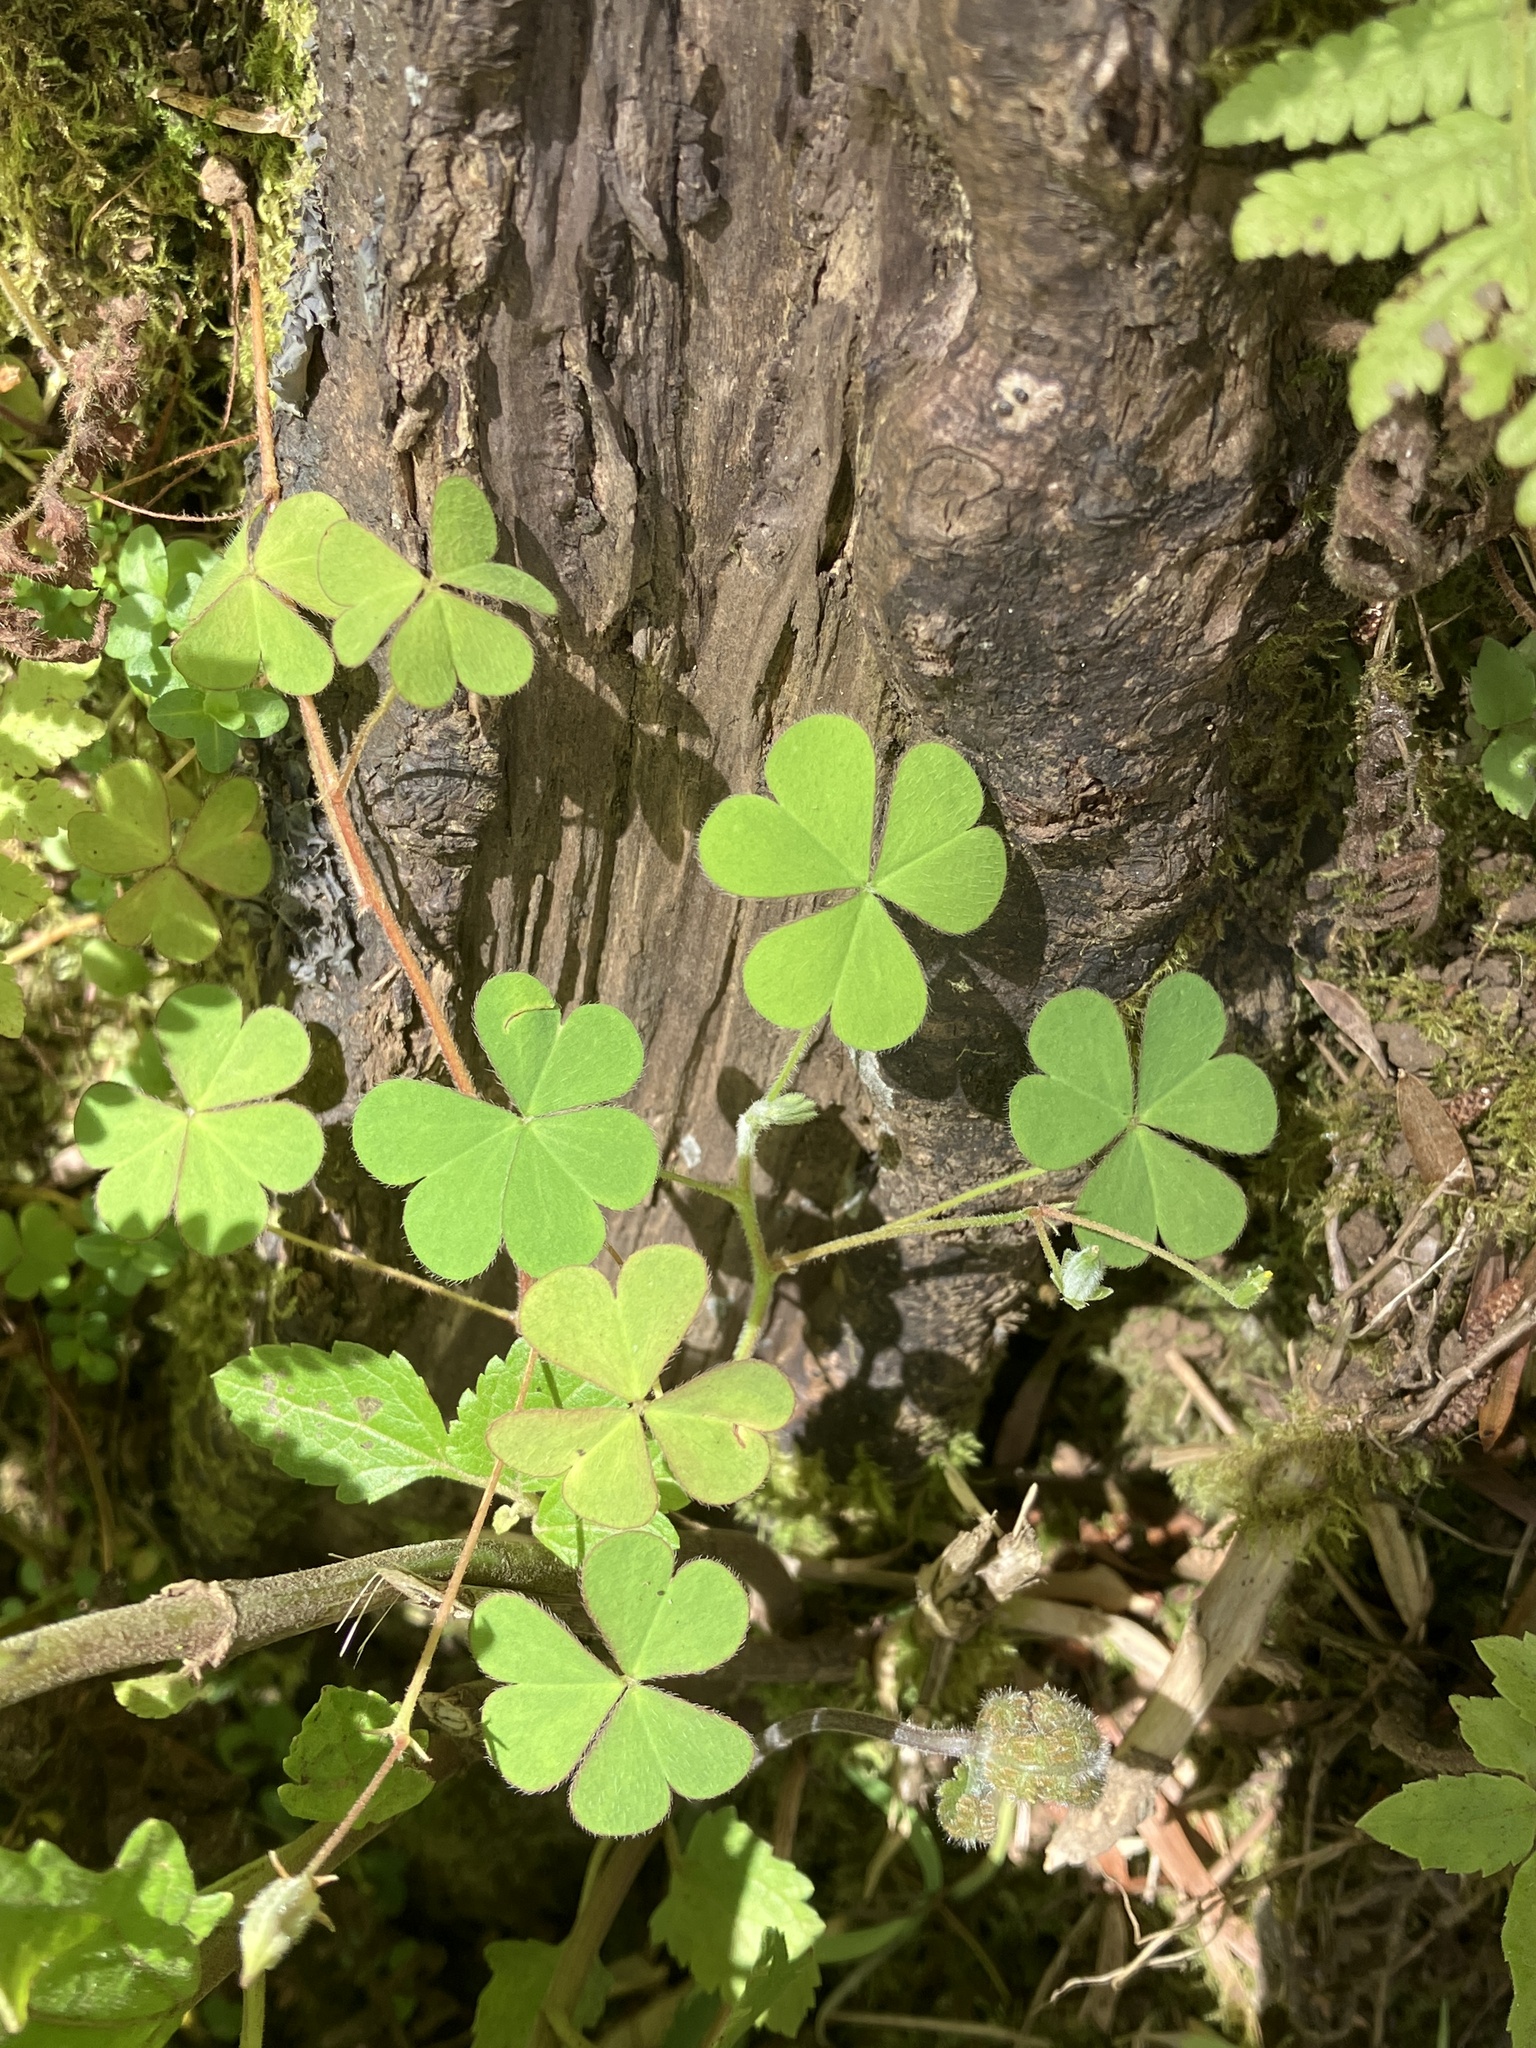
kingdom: Plantae
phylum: Tracheophyta
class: Magnoliopsida
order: Oxalidales
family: Oxalidaceae
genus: Oxalis
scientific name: Oxalis corniculata
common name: Procumbent yellow-sorrel
